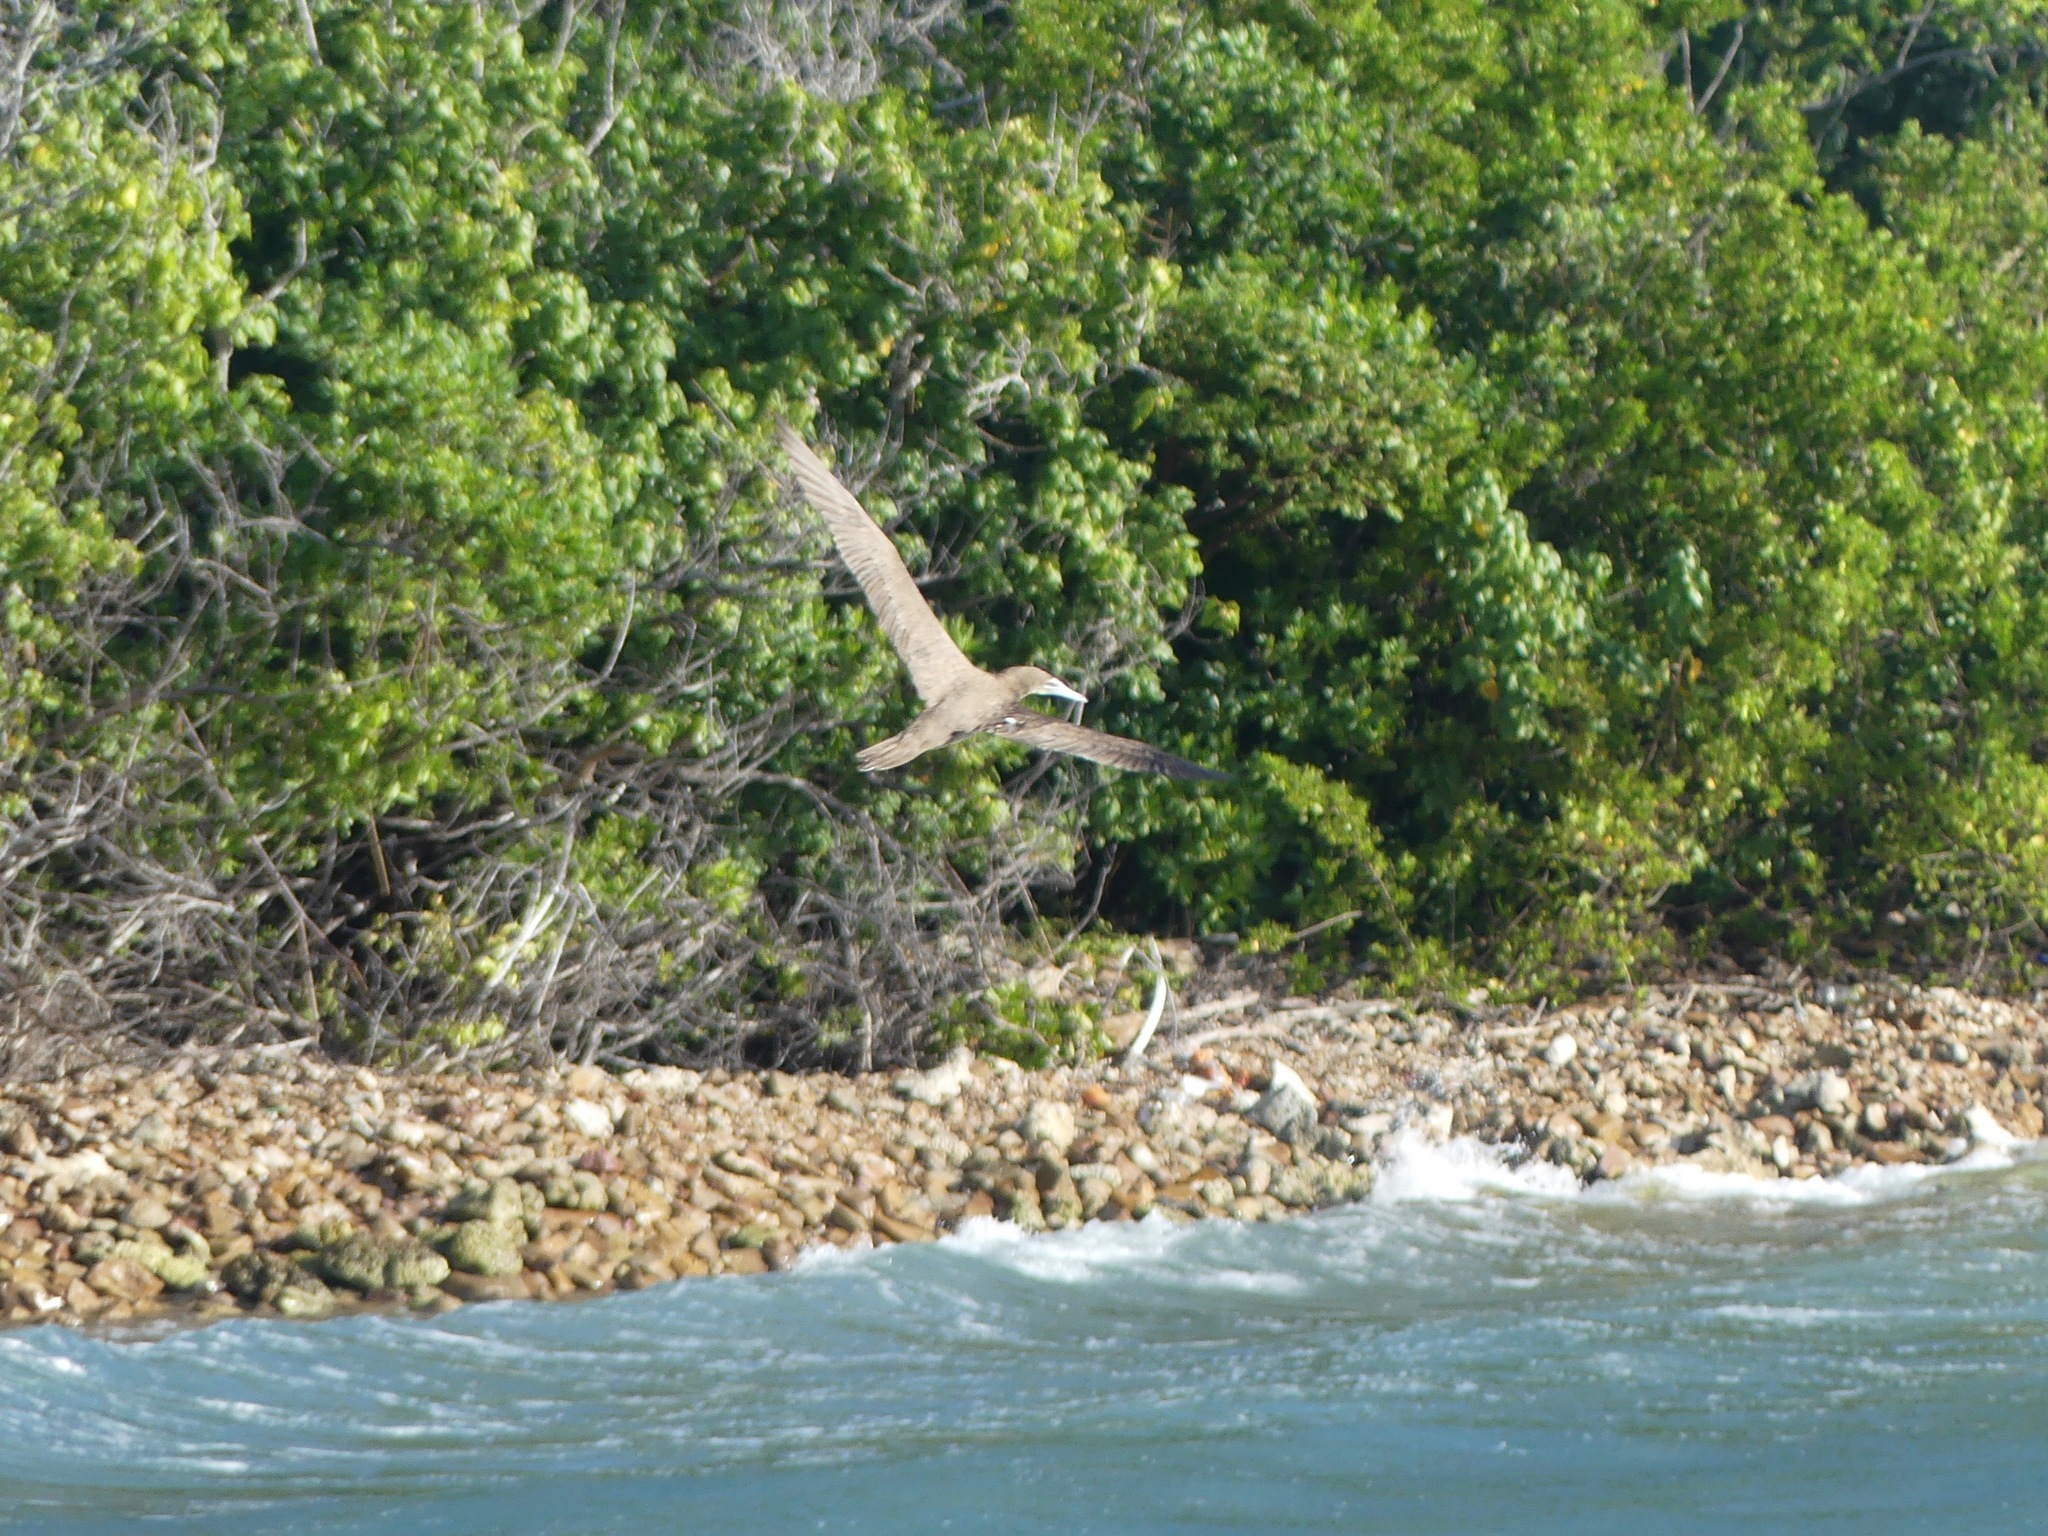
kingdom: Animalia
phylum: Chordata
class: Aves
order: Suliformes
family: Sulidae
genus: Sula
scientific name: Sula leucogaster
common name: Brown booby
